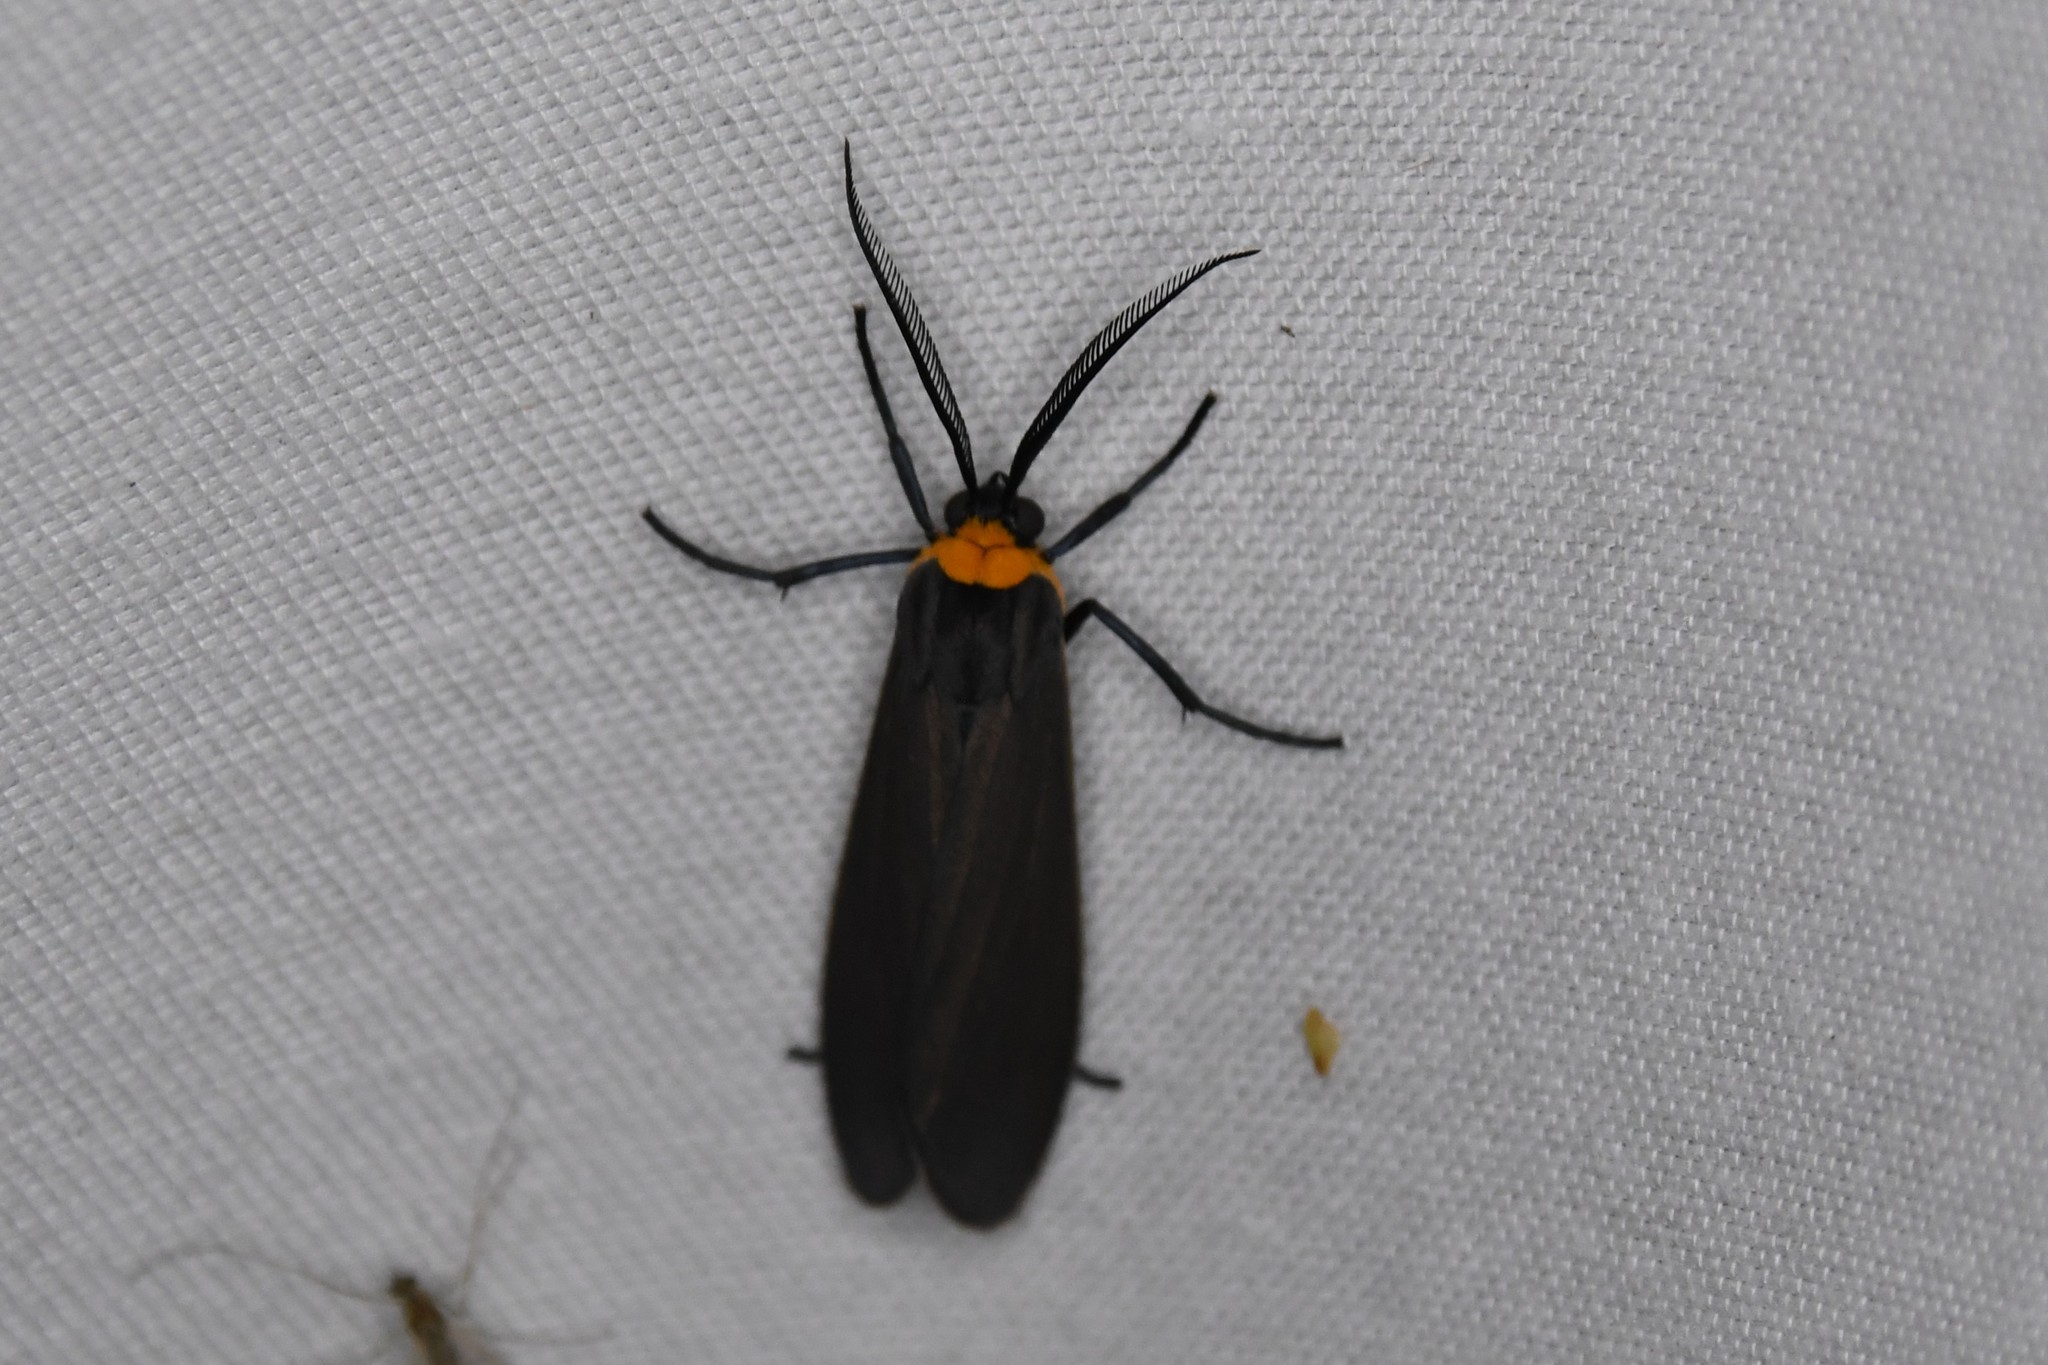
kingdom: Animalia
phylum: Arthropoda
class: Insecta
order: Lepidoptera
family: Erebidae
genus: Cisseps
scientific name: Cisseps fulvicollis
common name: Yellow-collared scape moth
